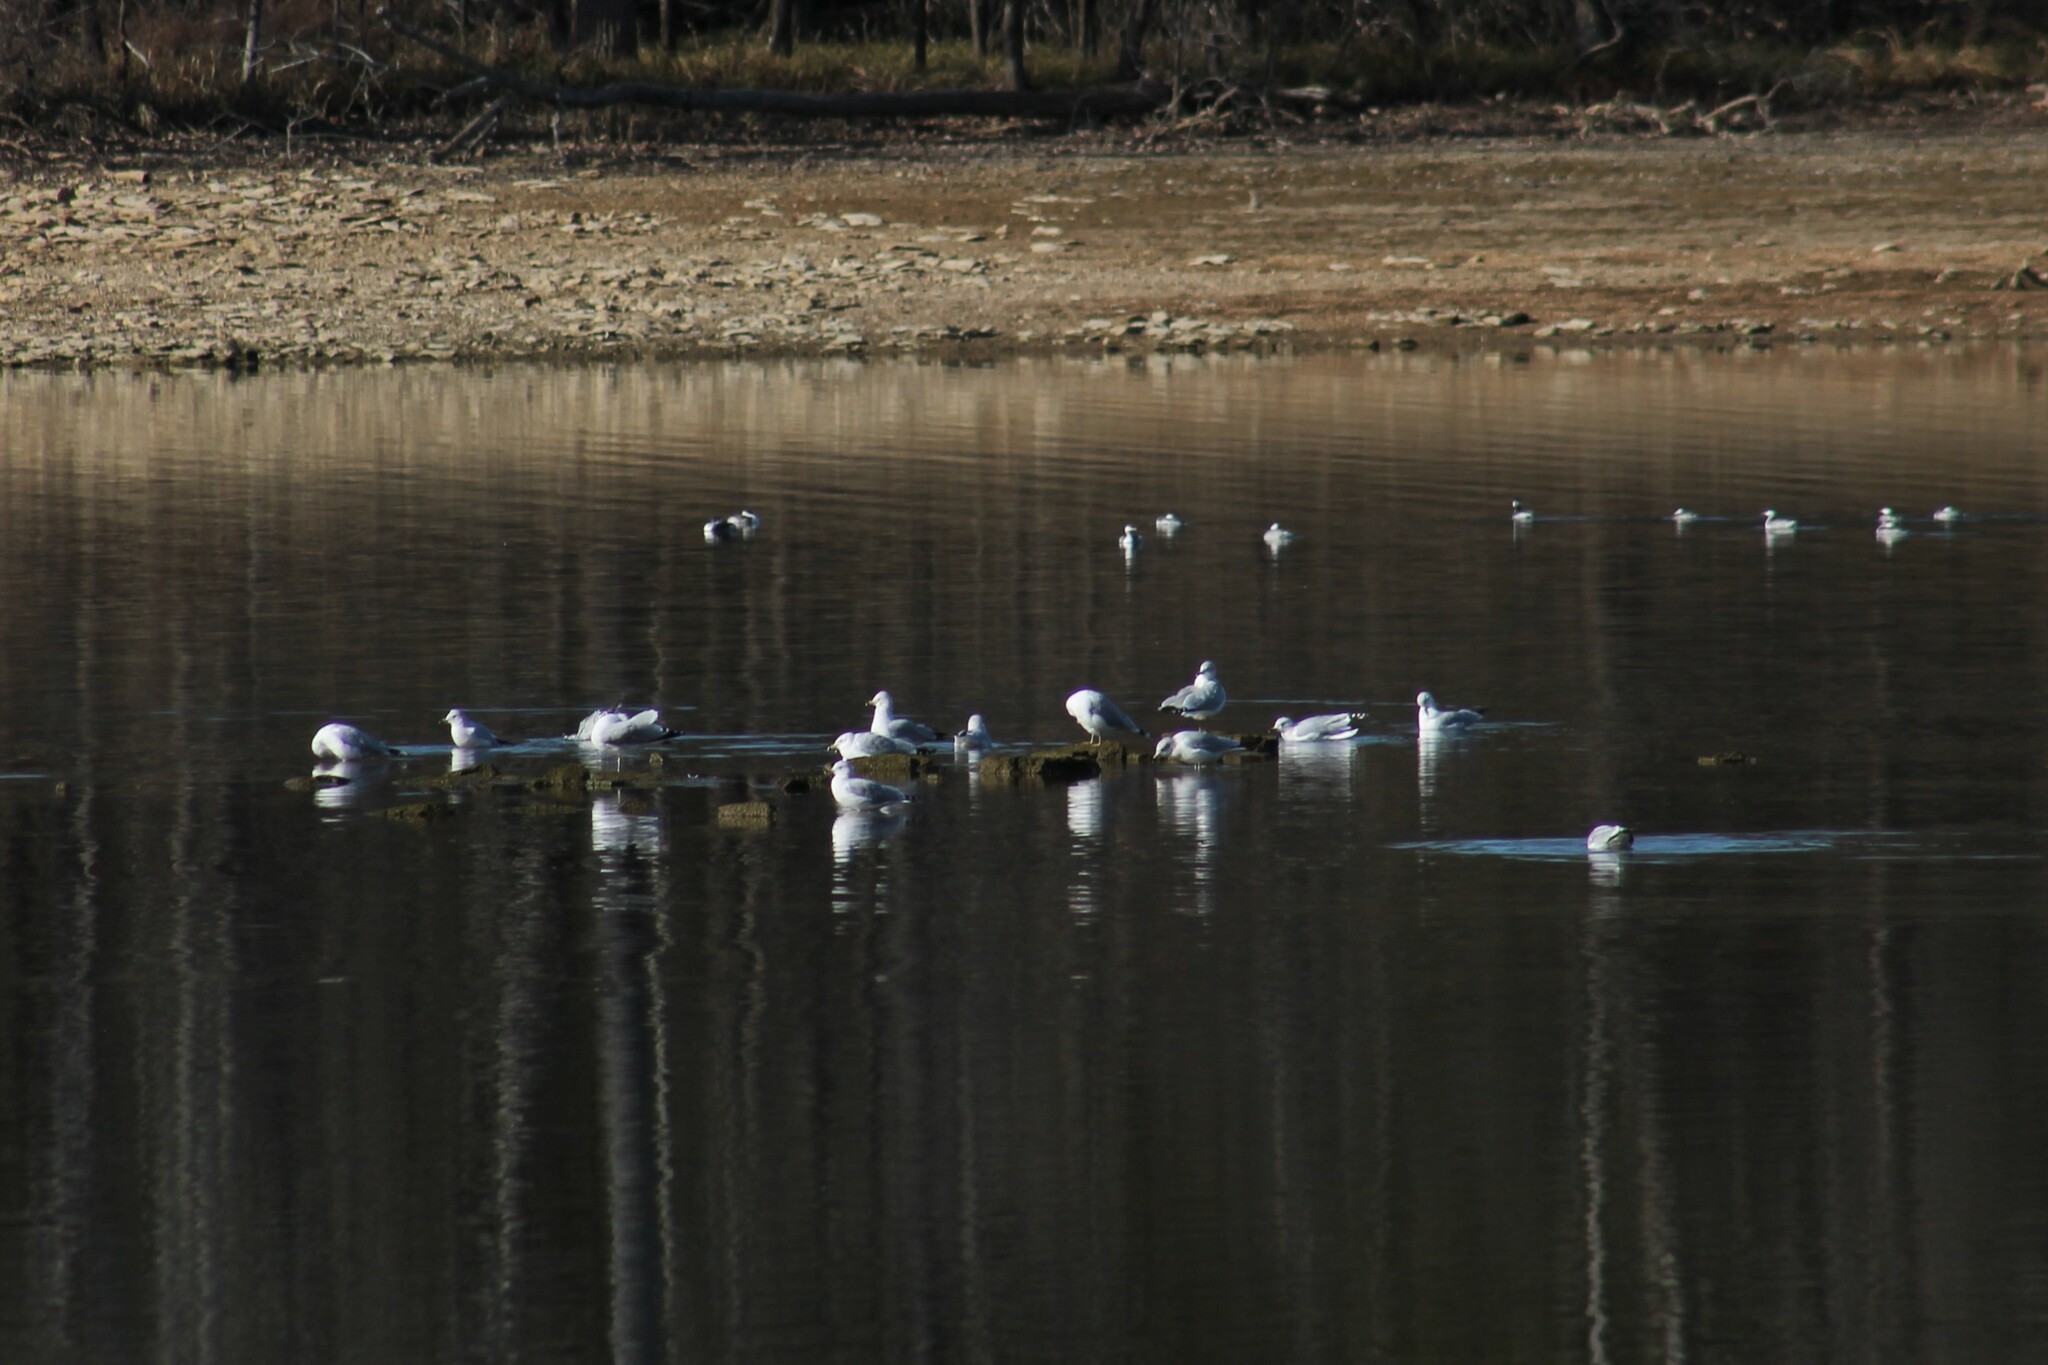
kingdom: Animalia
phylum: Chordata
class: Aves
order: Charadriiformes
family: Laridae
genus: Larus
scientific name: Larus delawarensis
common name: Ring-billed gull
